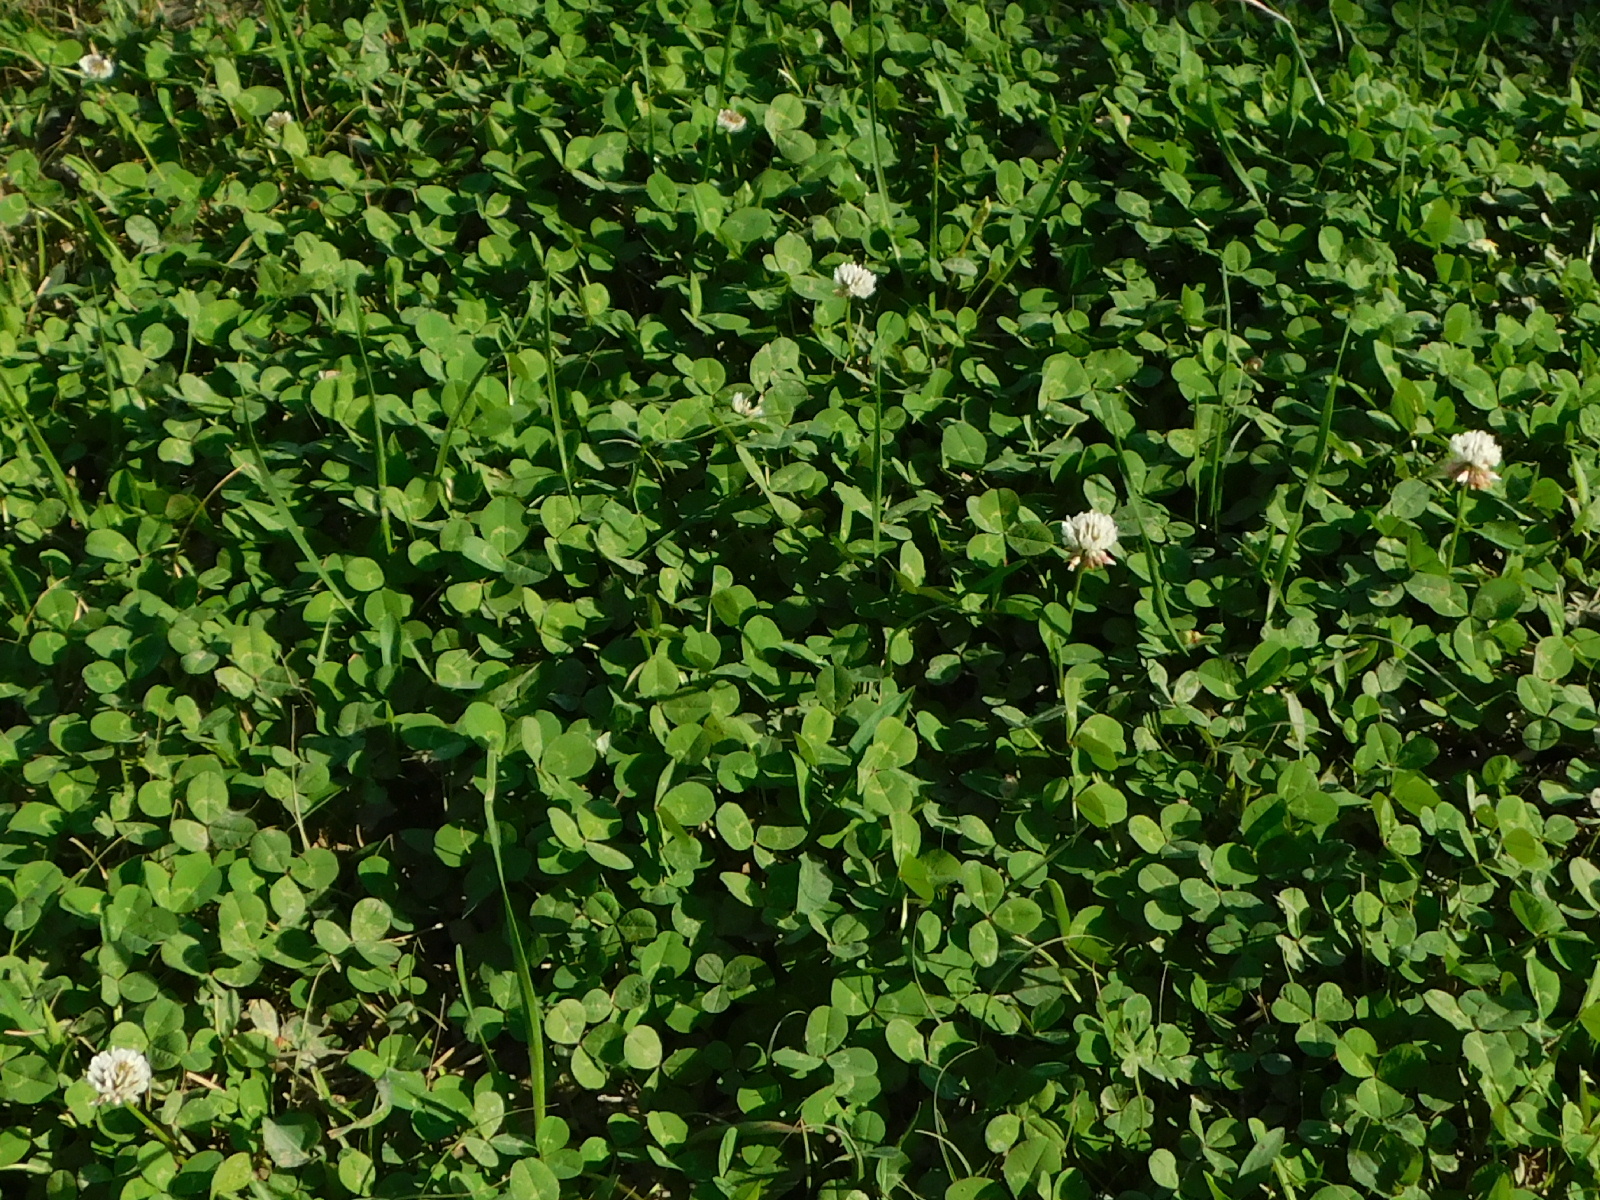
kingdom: Plantae
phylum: Tracheophyta
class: Magnoliopsida
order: Fabales
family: Fabaceae
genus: Trifolium
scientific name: Trifolium repens
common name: White clover
